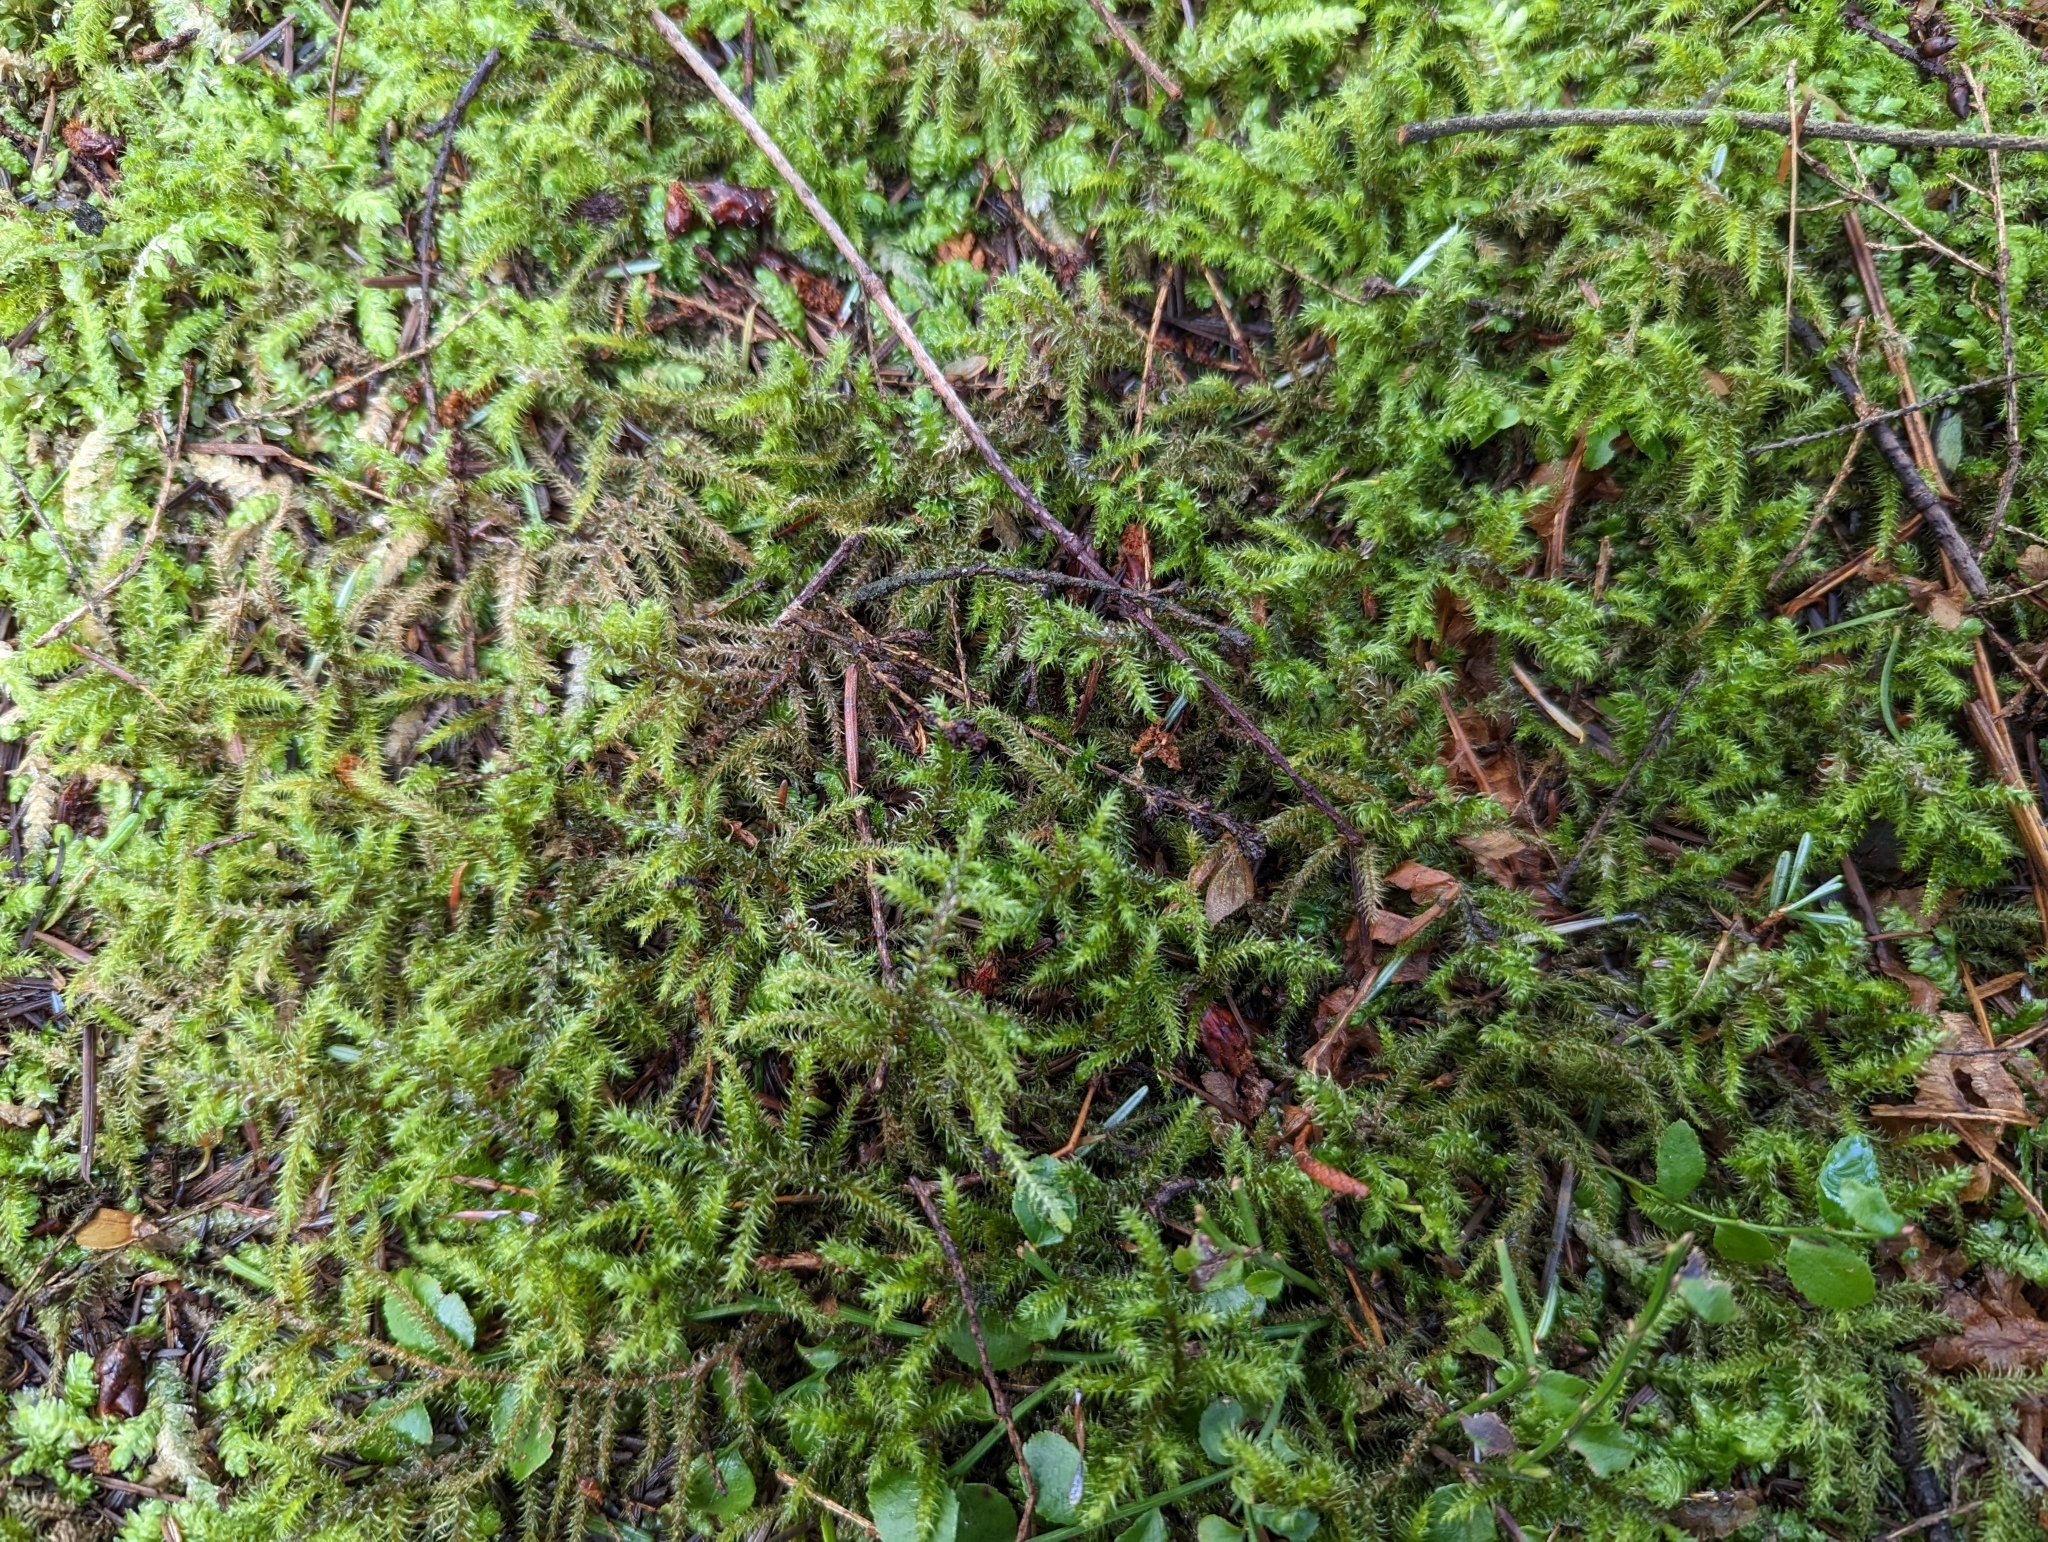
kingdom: Plantae
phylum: Bryophyta
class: Bryopsida
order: Hypnales
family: Hylocomiaceae
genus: Rhytidiadelphus
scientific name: Rhytidiadelphus loreus
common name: Lanky moss
